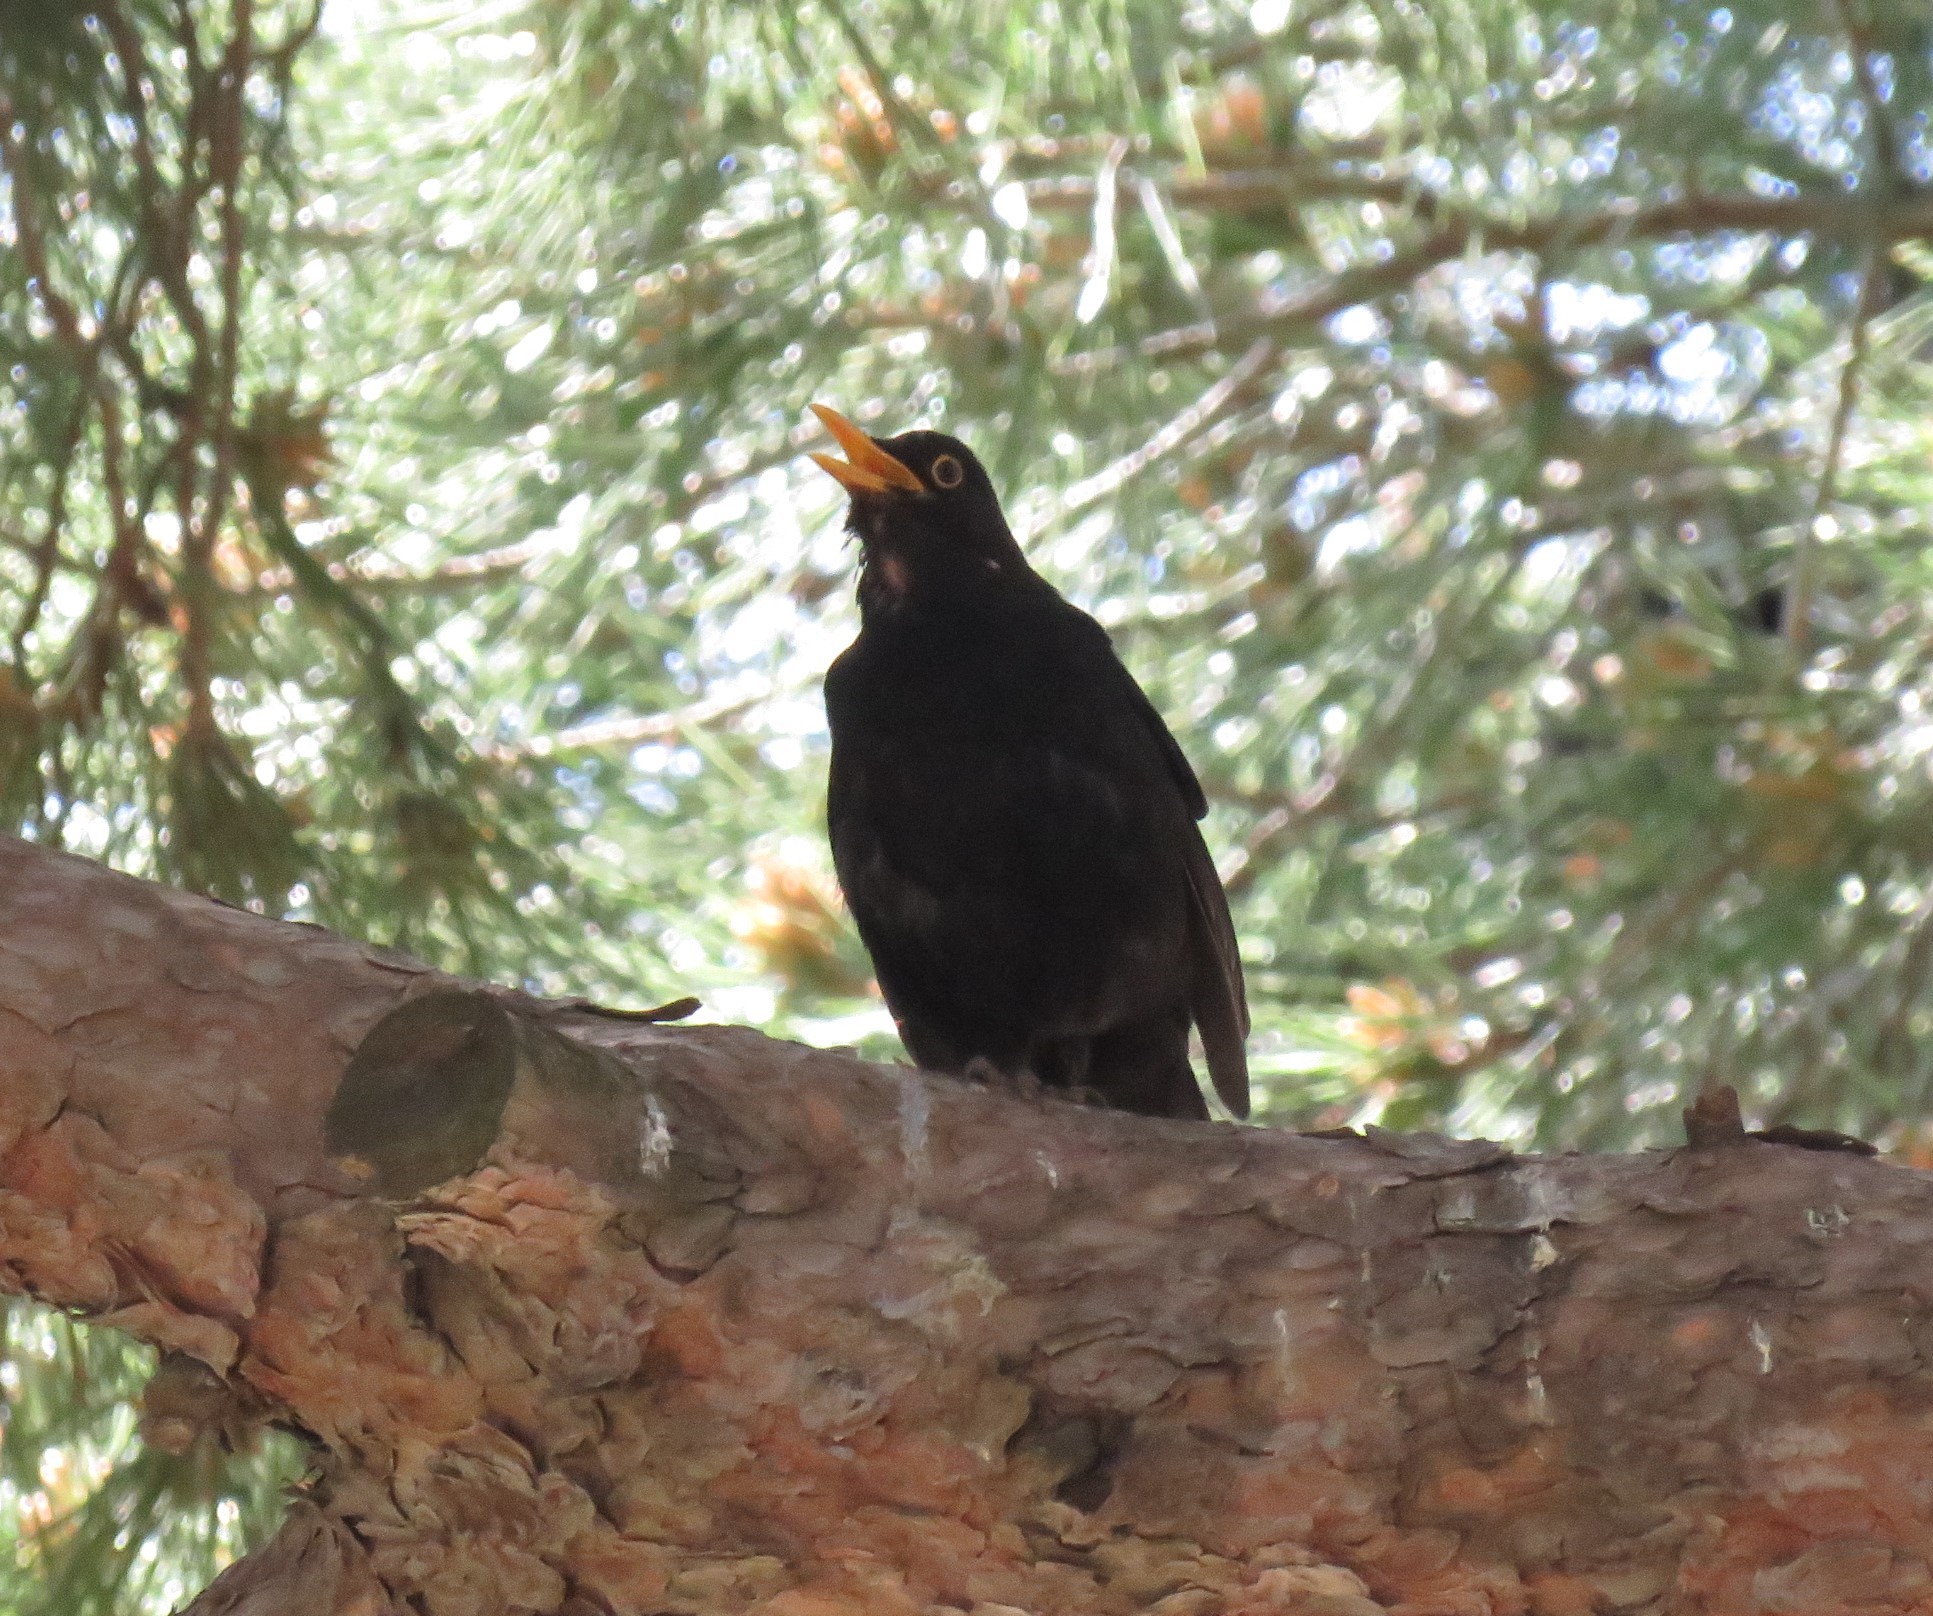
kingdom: Animalia
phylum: Chordata
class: Aves
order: Passeriformes
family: Turdidae
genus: Turdus
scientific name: Turdus merula
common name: Common blackbird
